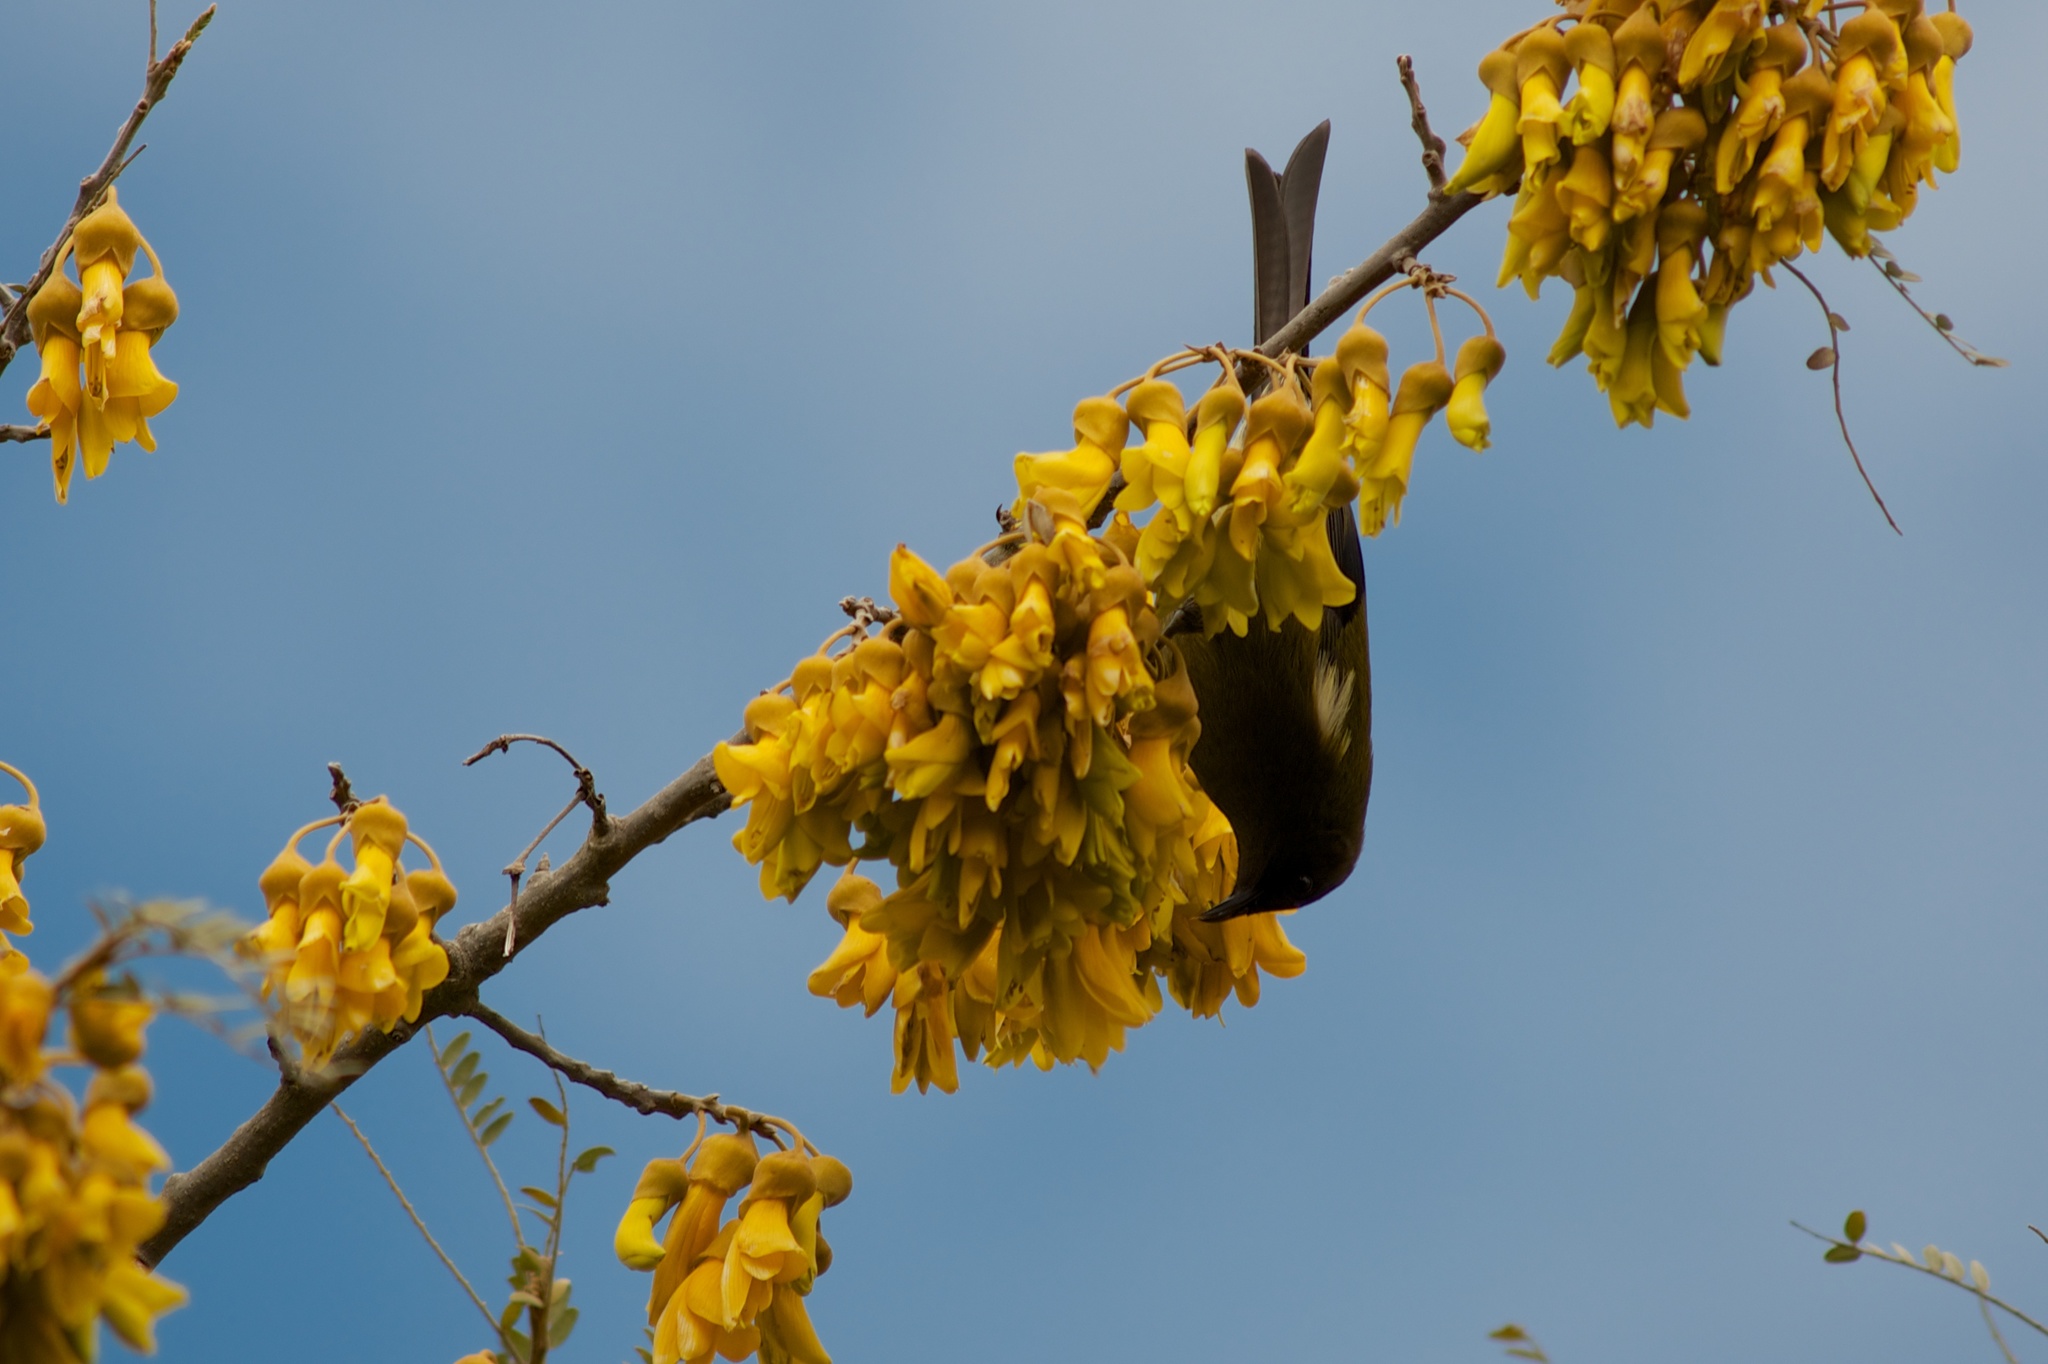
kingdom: Animalia
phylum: Chordata
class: Aves
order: Passeriformes
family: Meliphagidae
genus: Anthornis
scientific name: Anthornis melanura
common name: New zealand bellbird
